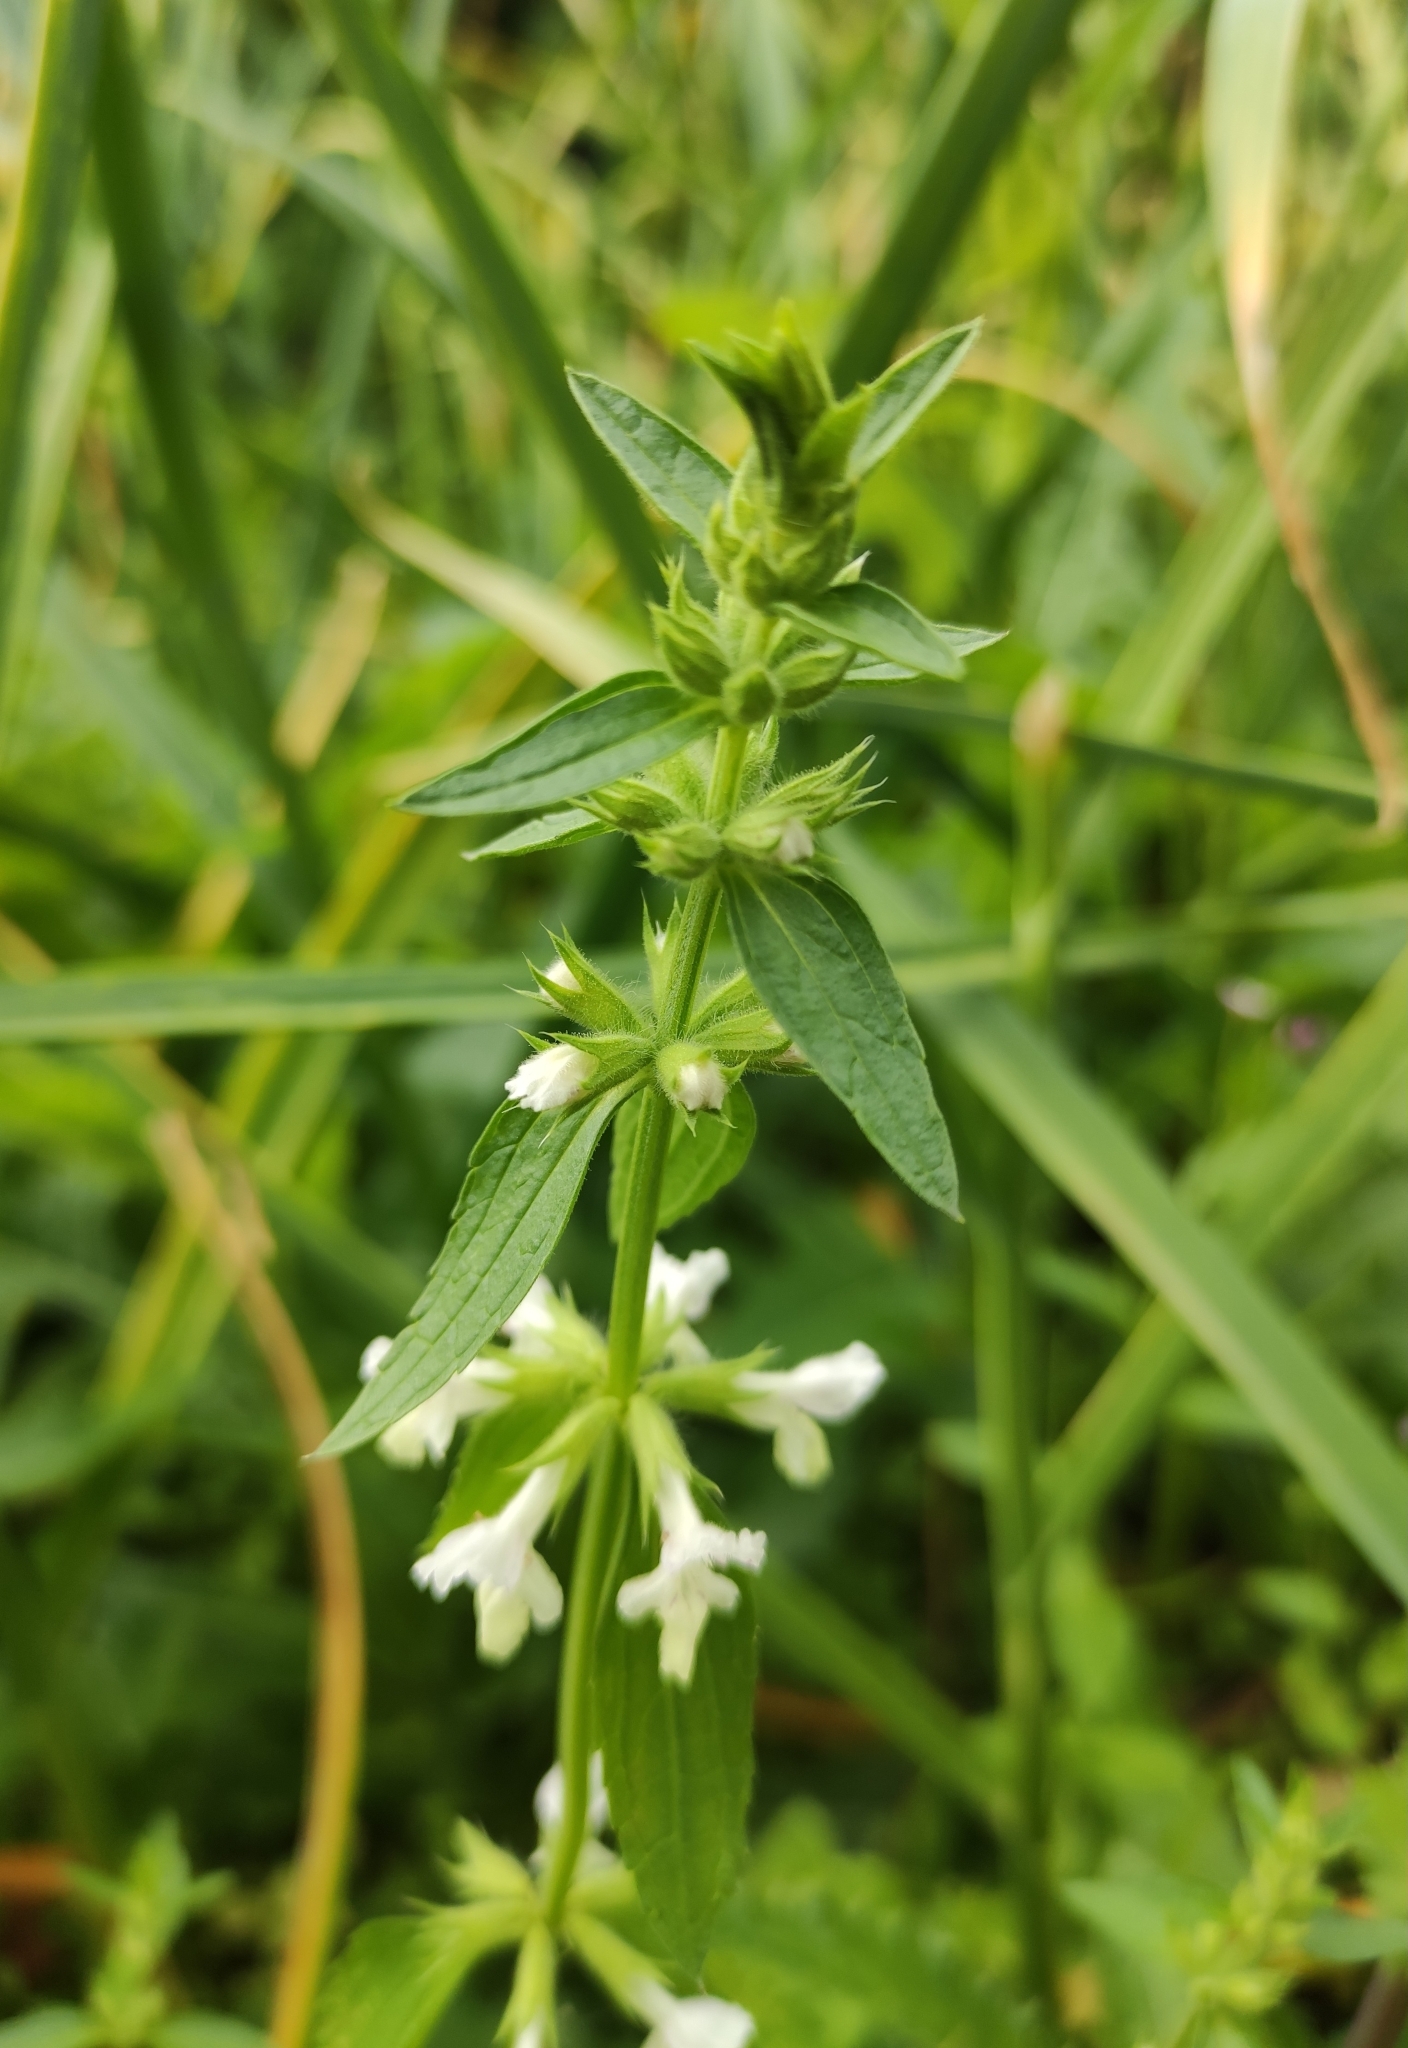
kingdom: Plantae
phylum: Tracheophyta
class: Magnoliopsida
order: Lamiales
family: Lamiaceae
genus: Stachys
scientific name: Stachys annua
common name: Annual yellow-woundwort
